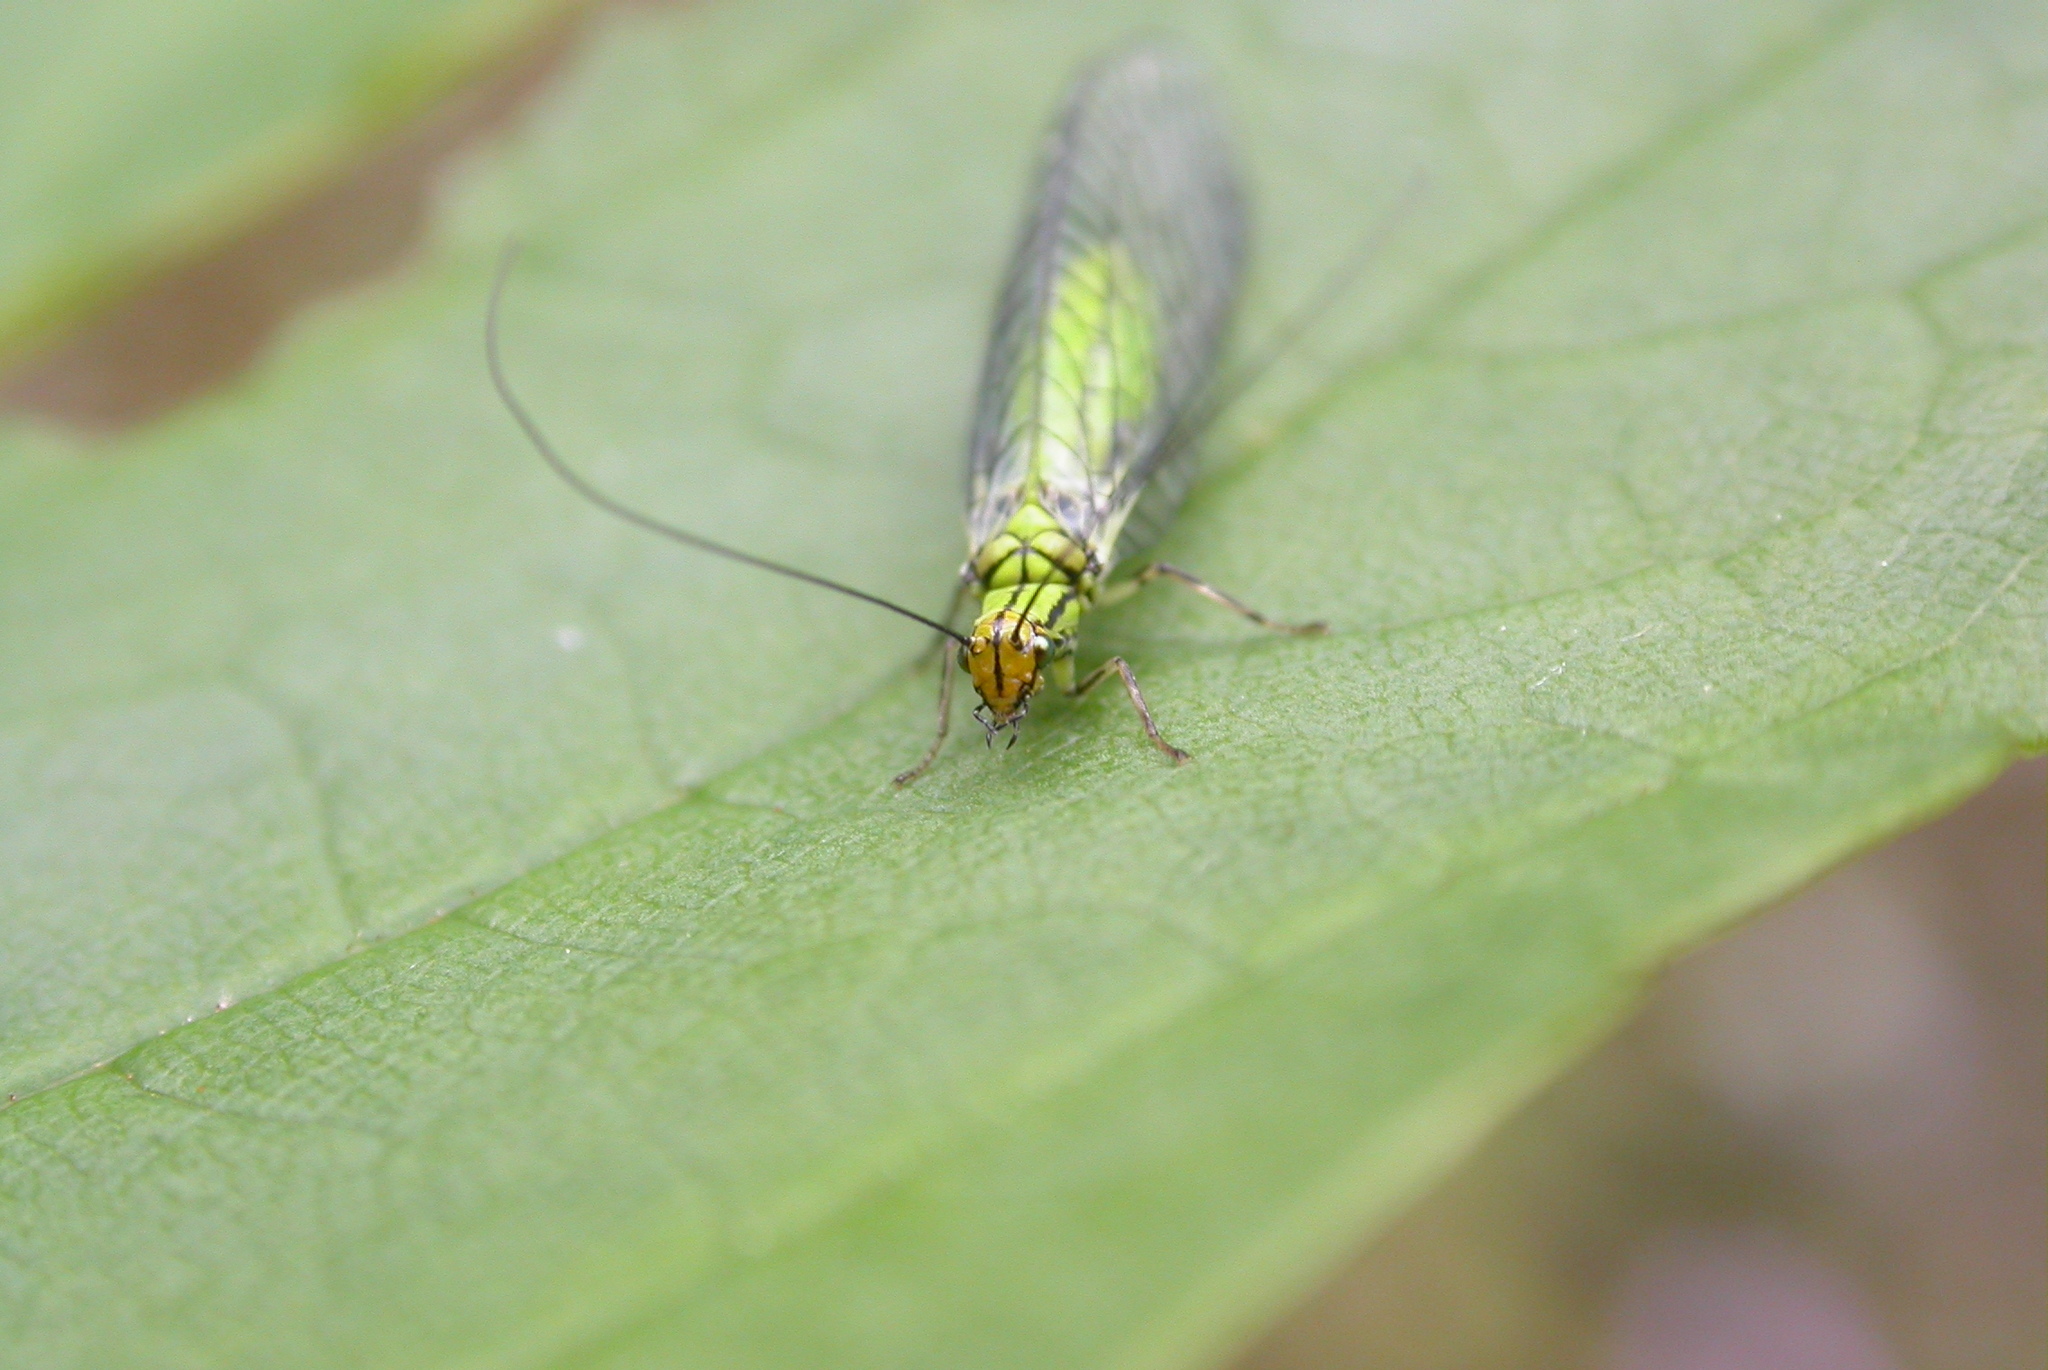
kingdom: Animalia
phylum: Arthropoda
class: Insecta
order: Neuroptera
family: Chrysopidae
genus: Hypochrysa
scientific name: Hypochrysa elegans
